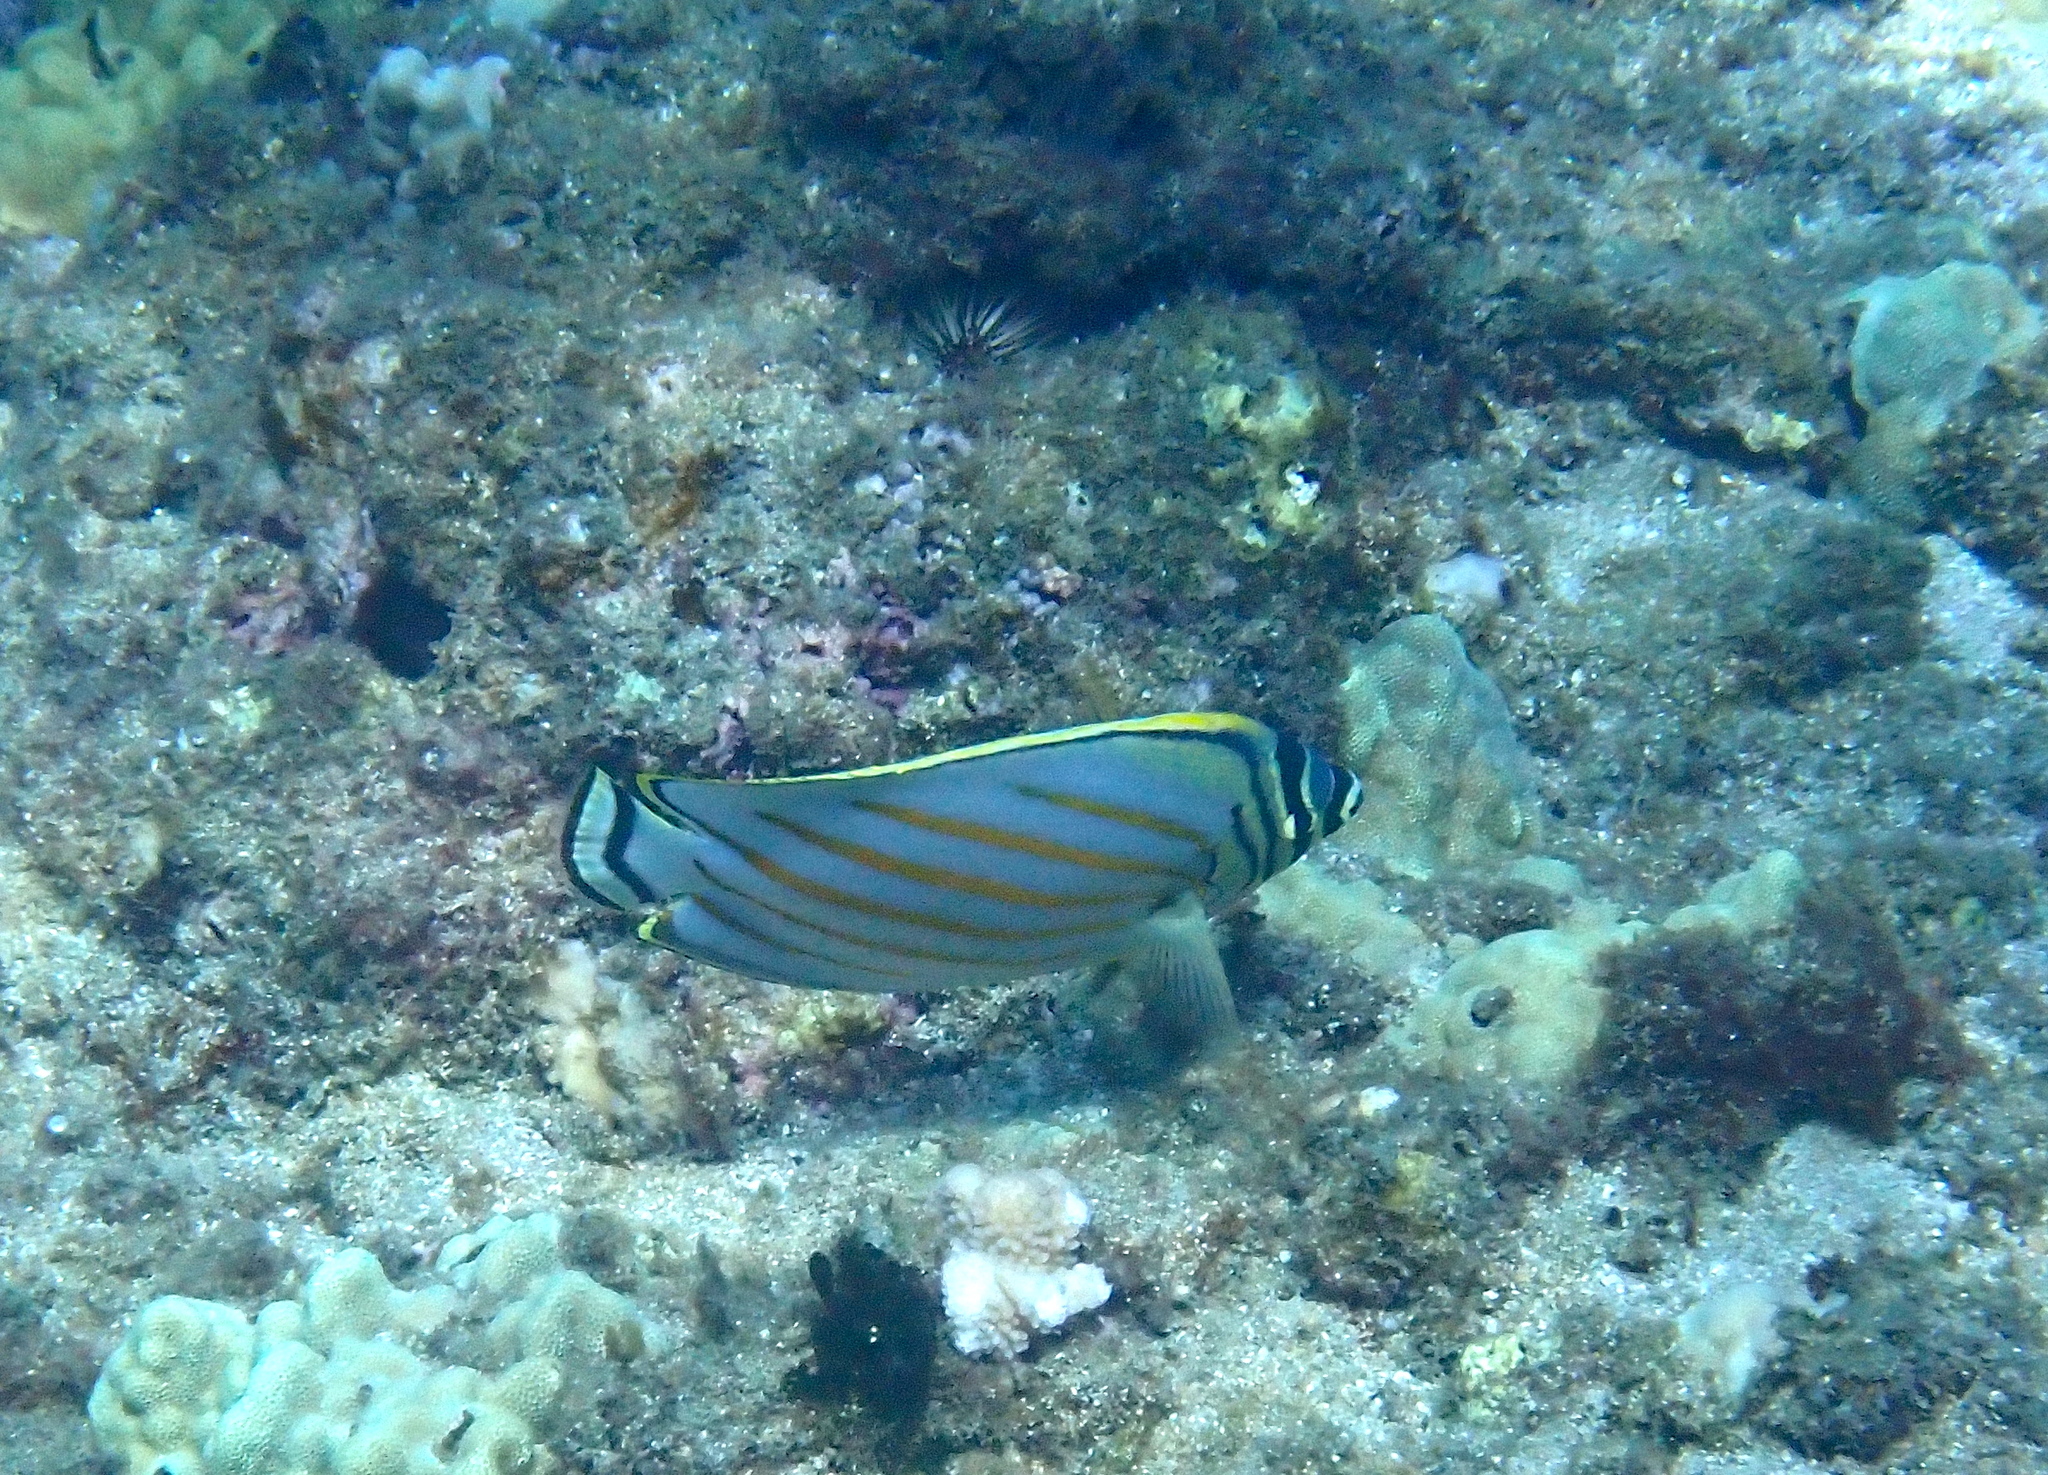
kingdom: Animalia
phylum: Chordata
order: Perciformes
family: Chaetodontidae
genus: Chaetodon
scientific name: Chaetodon ornatissimus
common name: Ornate butterflyfish
